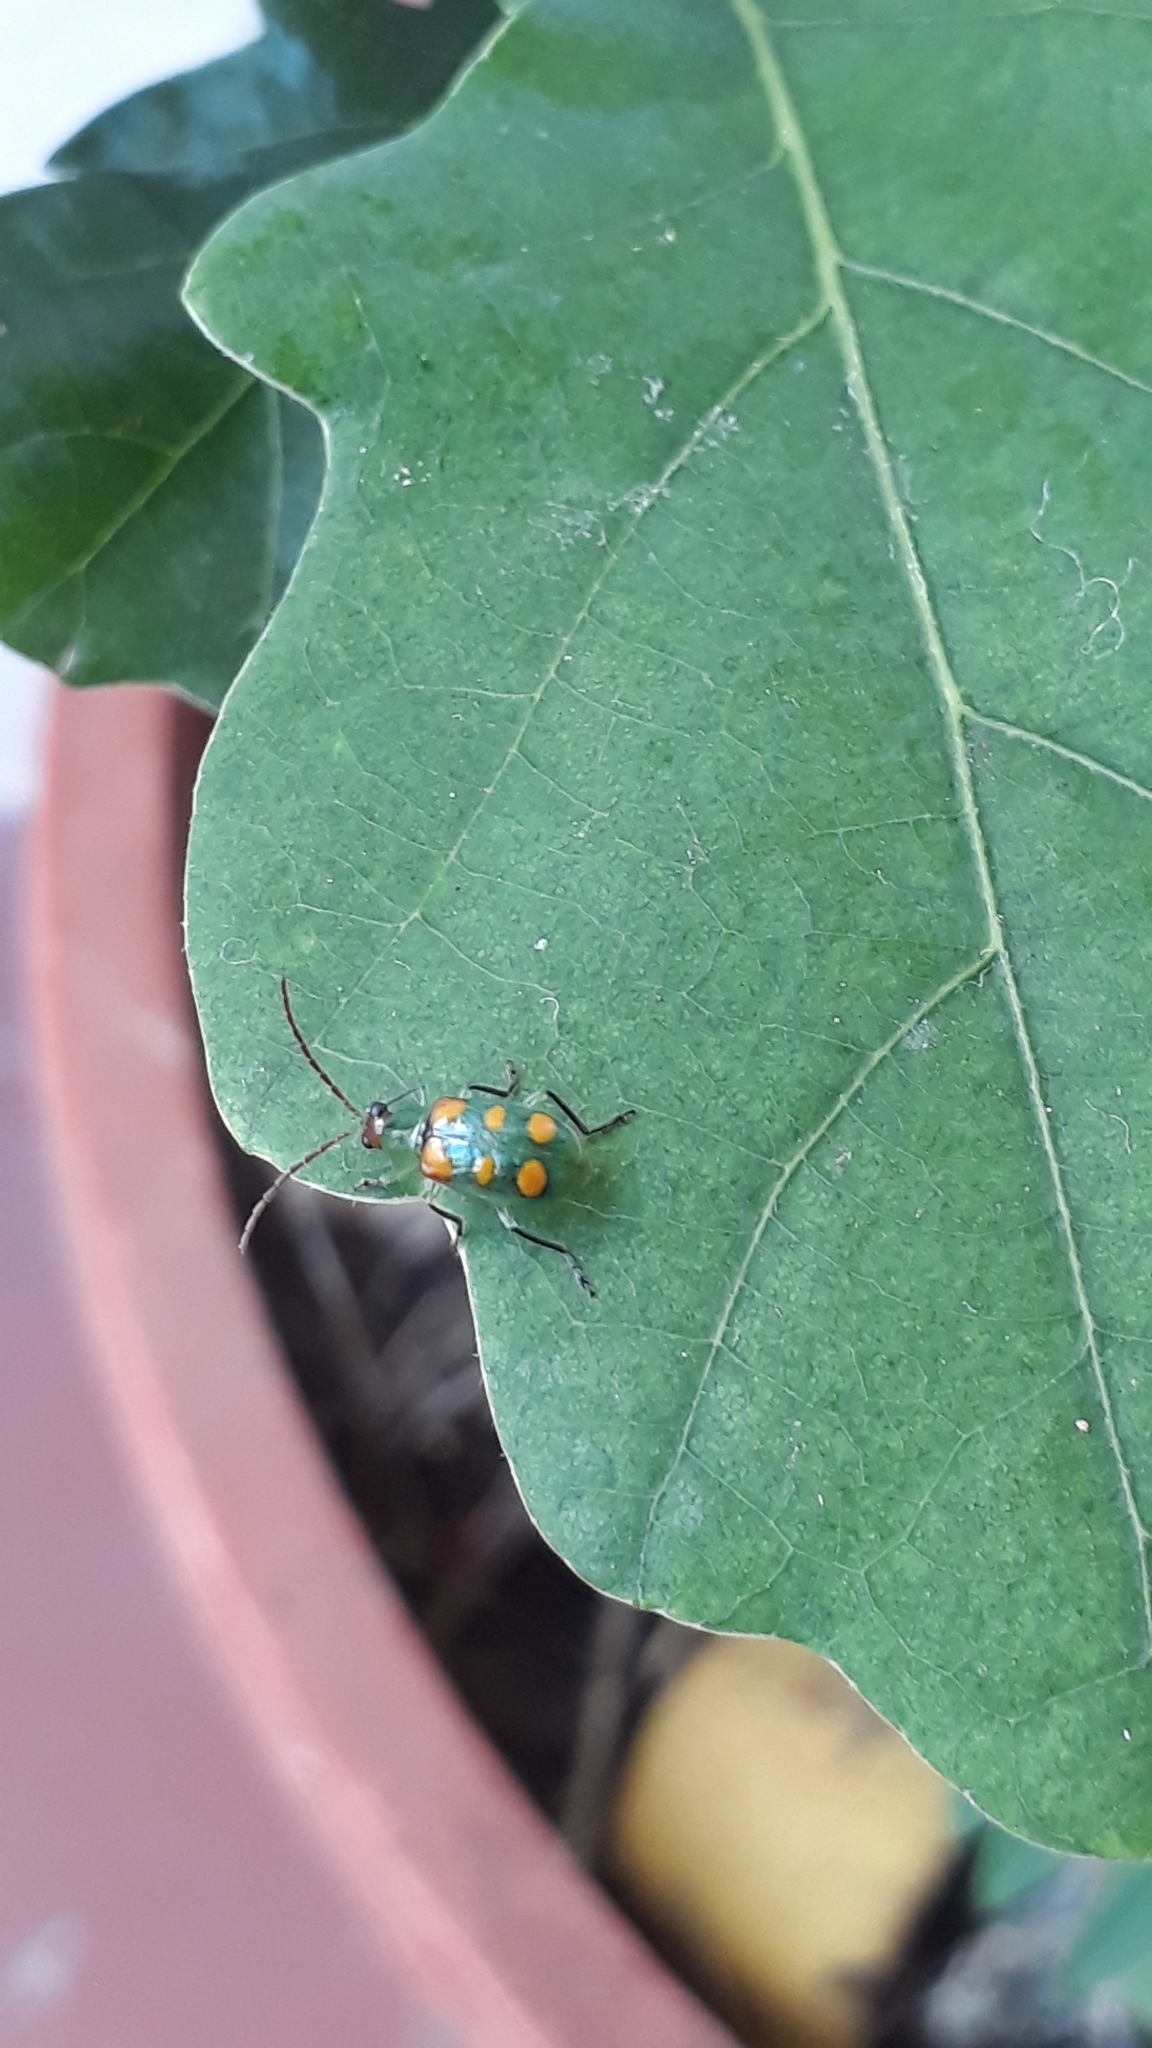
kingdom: Animalia
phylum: Arthropoda
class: Insecta
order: Coleoptera
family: Chrysomelidae
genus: Diabrotica
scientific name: Diabrotica speciosa
